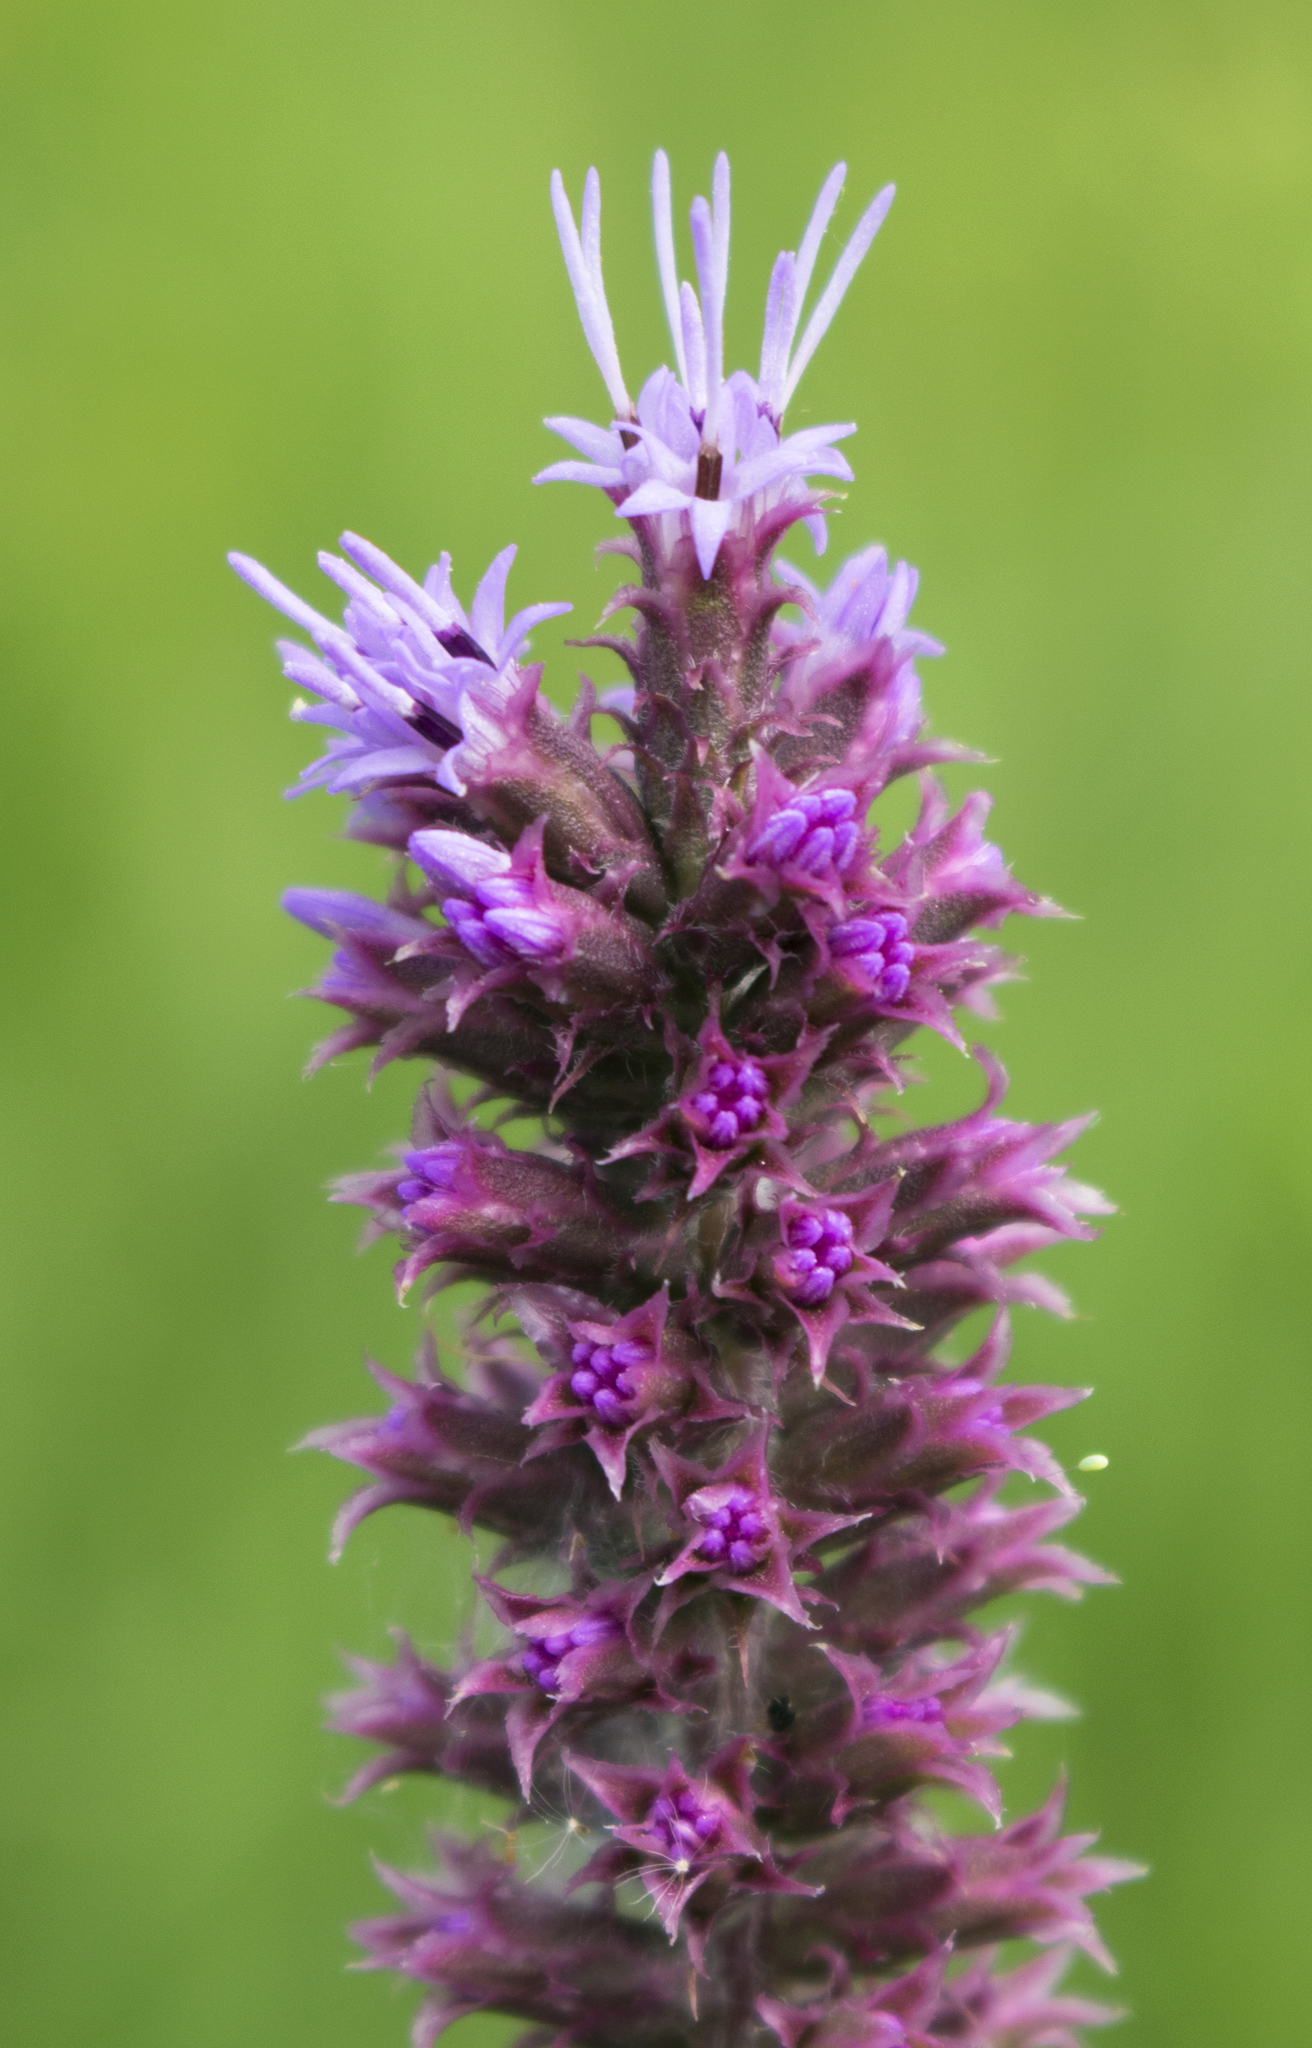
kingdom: Plantae
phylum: Tracheophyta
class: Magnoliopsida
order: Asterales
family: Asteraceae
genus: Liatris
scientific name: Liatris pycnostachya
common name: Cattail gayfeather
